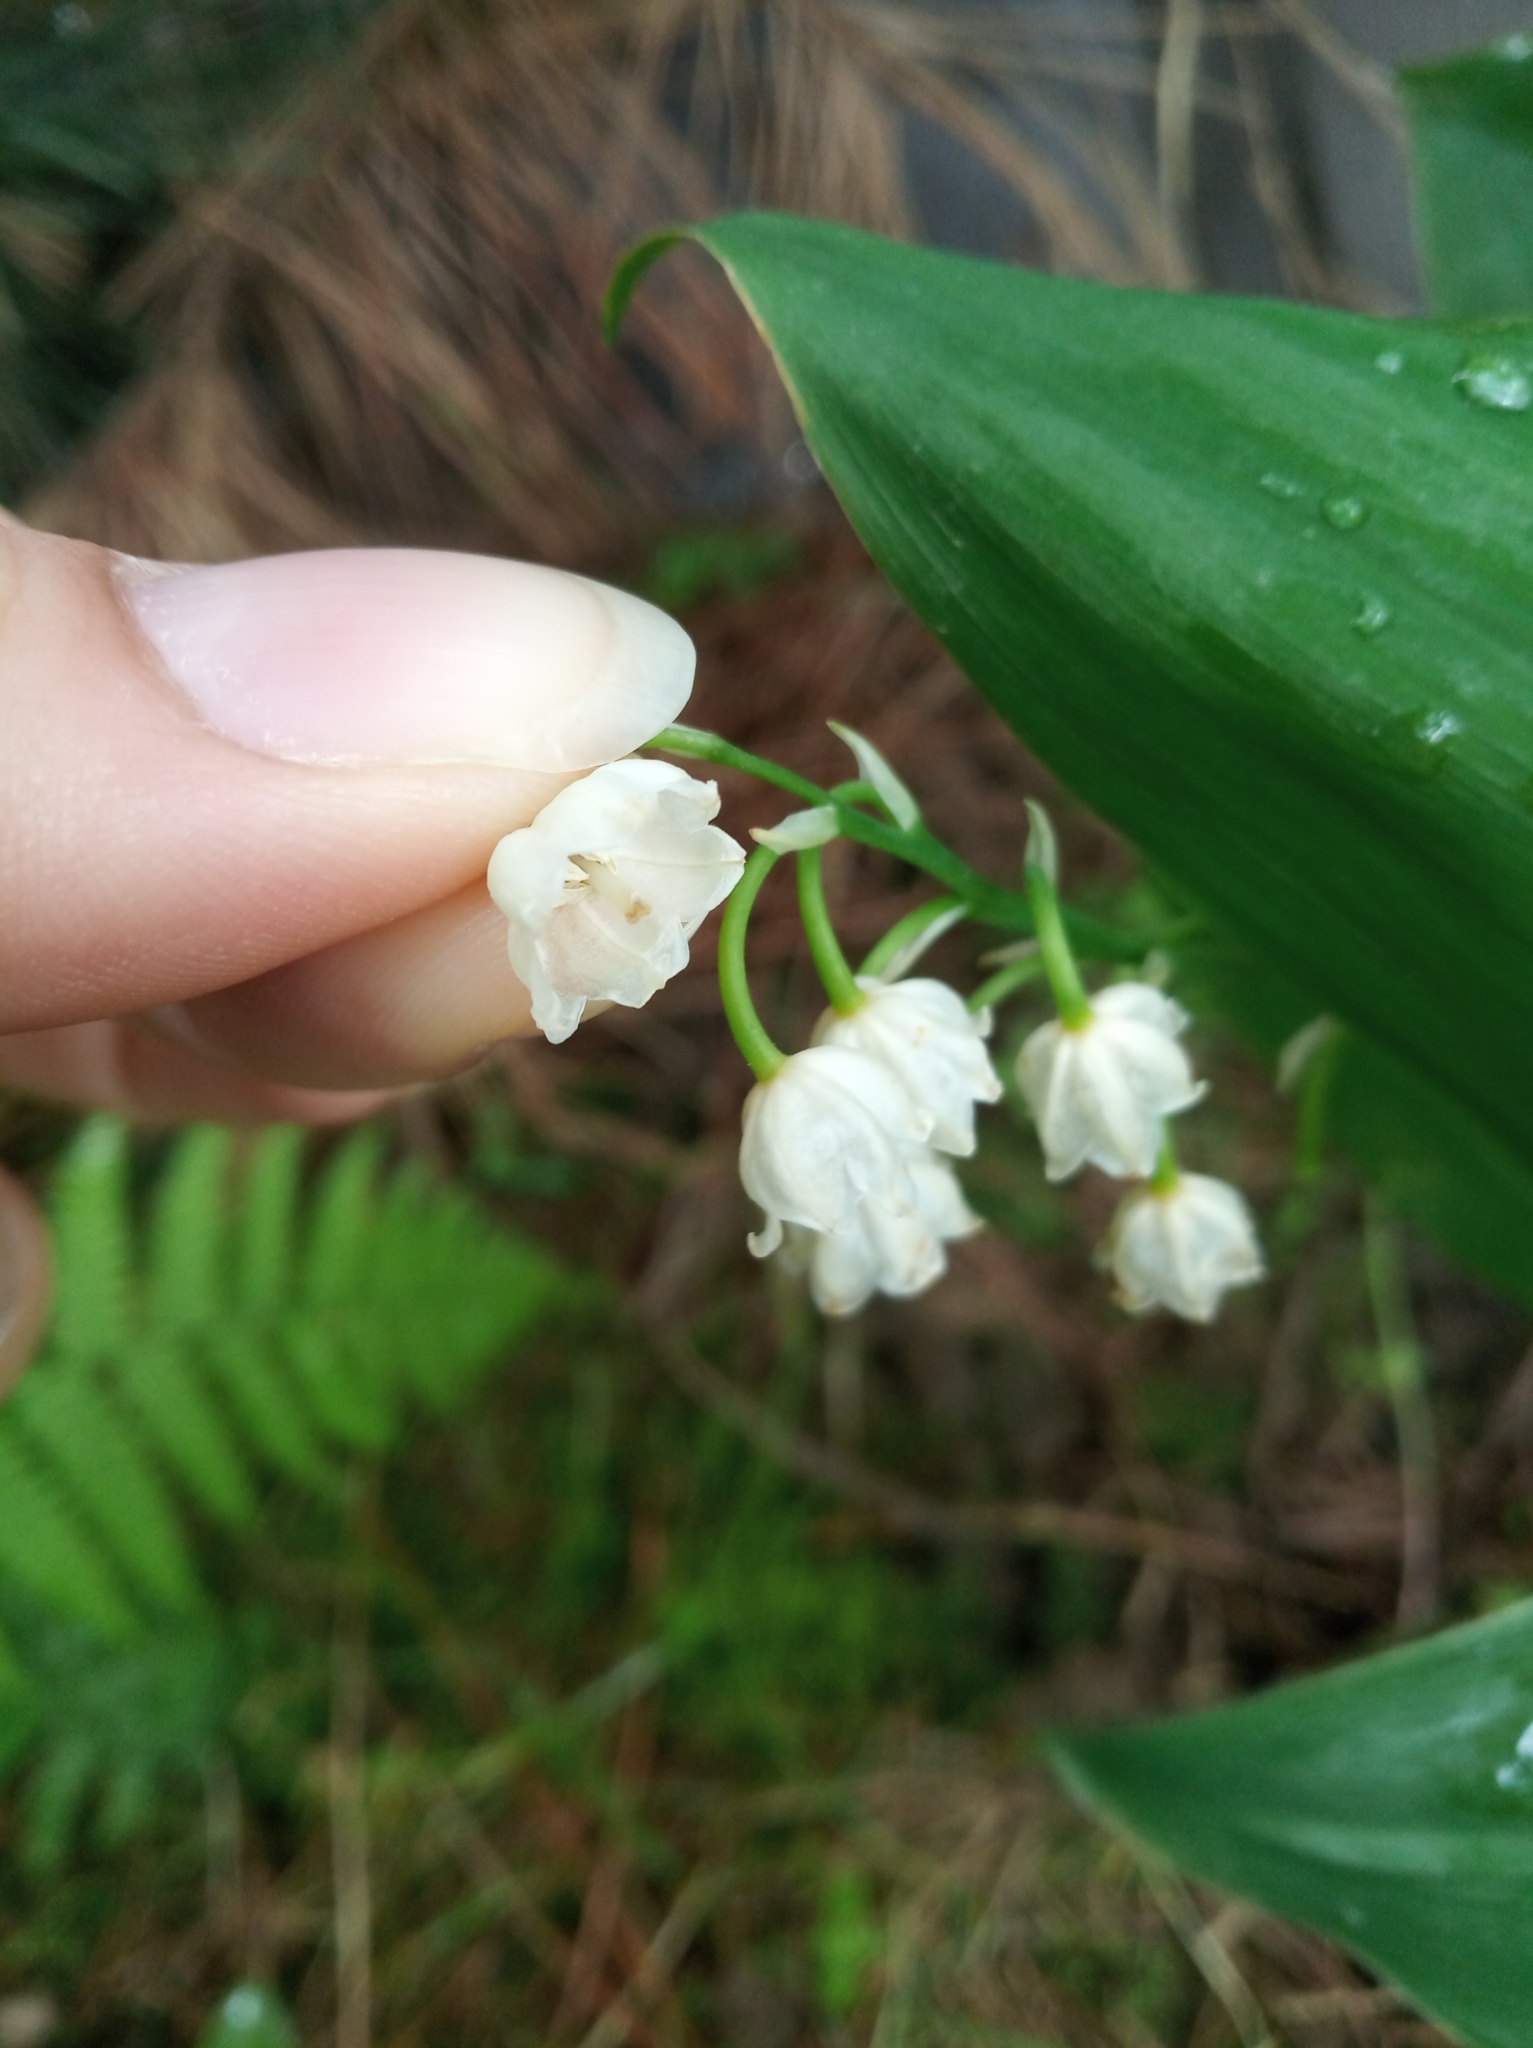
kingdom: Plantae
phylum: Tracheophyta
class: Liliopsida
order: Asparagales
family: Asparagaceae
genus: Convallaria
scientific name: Convallaria majalis
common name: Lily-of-the-valley
